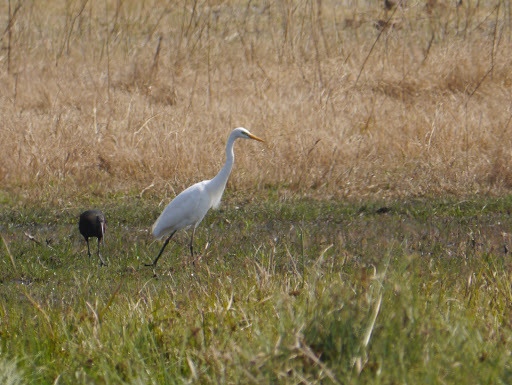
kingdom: Animalia
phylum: Chordata
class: Aves
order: Pelecaniformes
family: Ardeidae
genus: Egretta
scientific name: Egretta intermedia
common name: Intermediate egret
